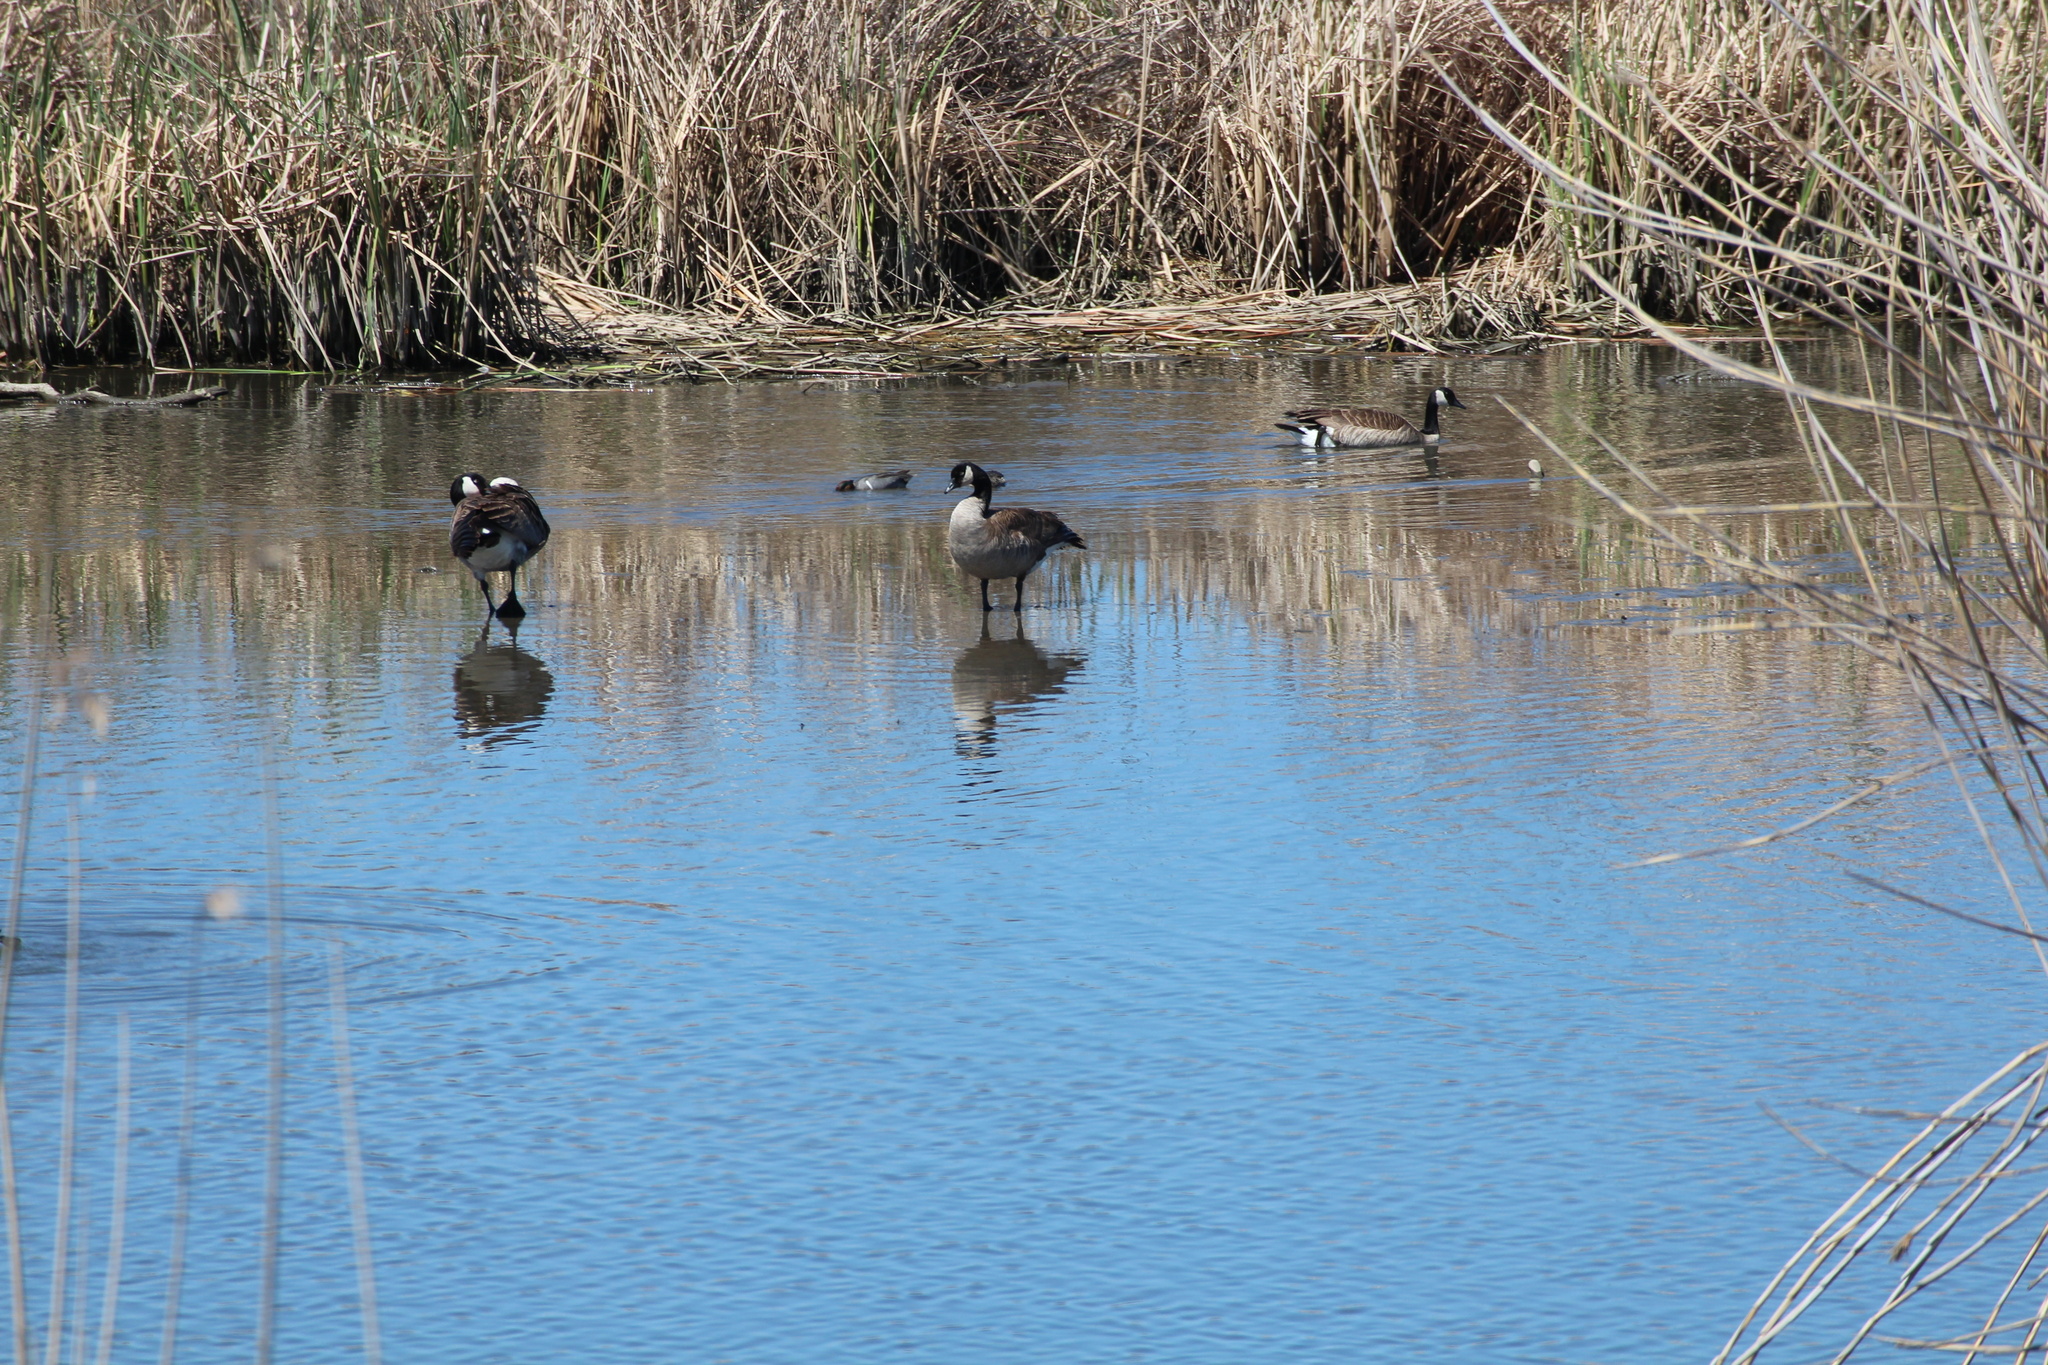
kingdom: Animalia
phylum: Chordata
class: Aves
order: Anseriformes
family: Anatidae
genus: Branta
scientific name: Branta canadensis
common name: Canada goose
